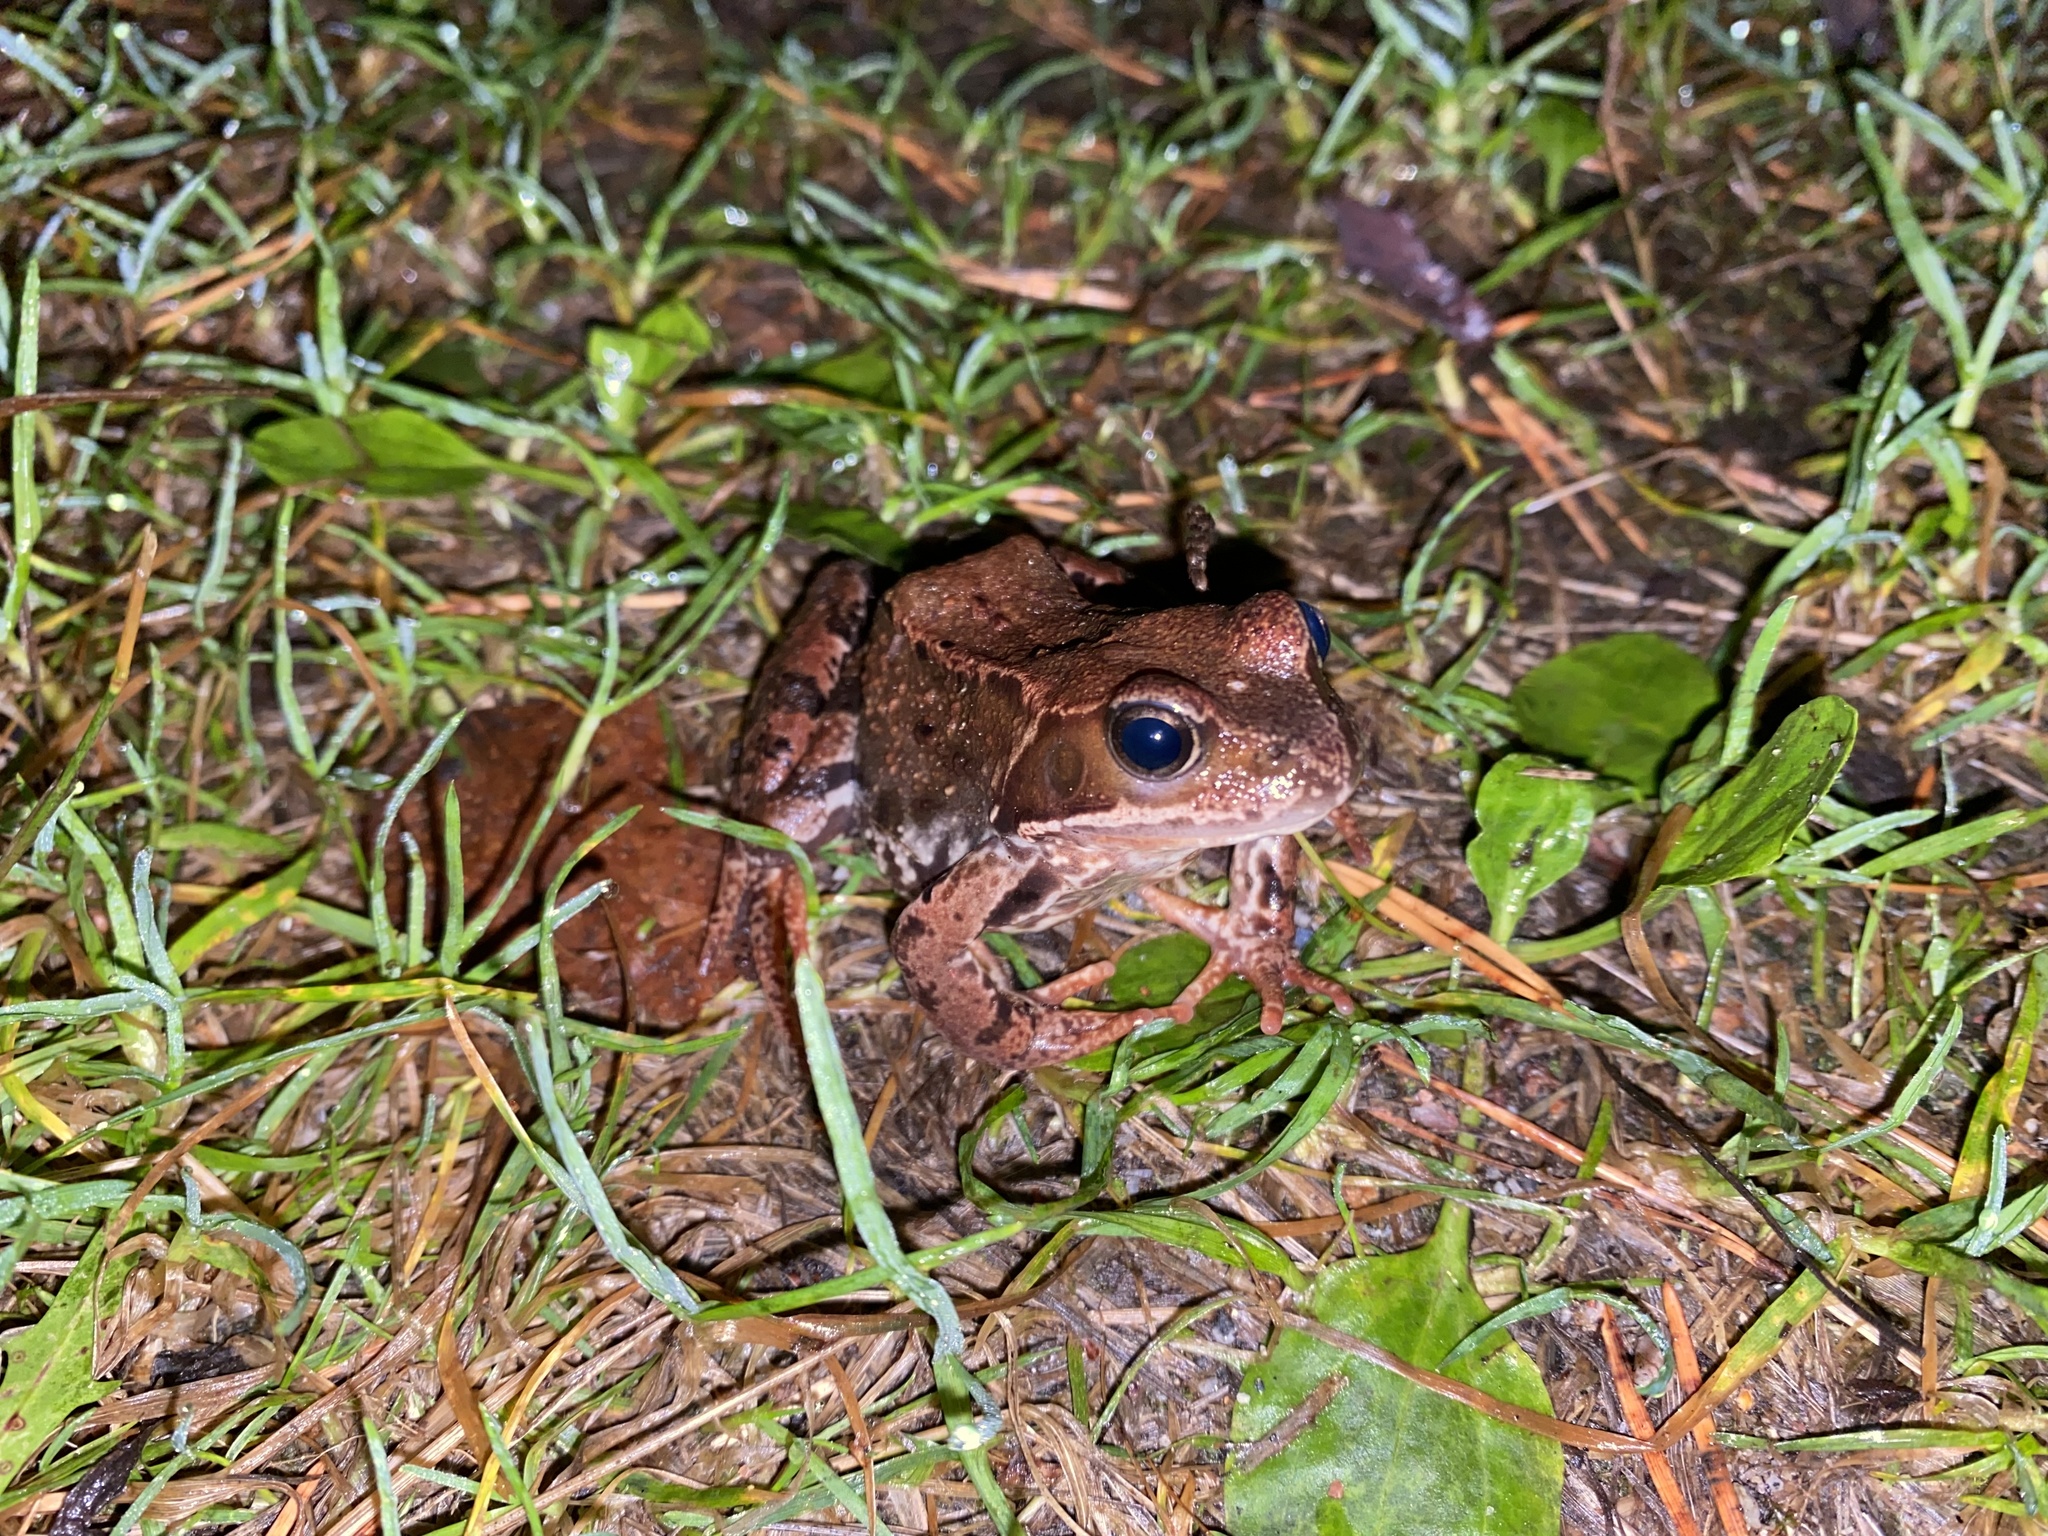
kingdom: Animalia
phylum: Chordata
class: Amphibia
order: Anura
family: Ranidae
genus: Rana
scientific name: Rana temporaria
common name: Common frog
